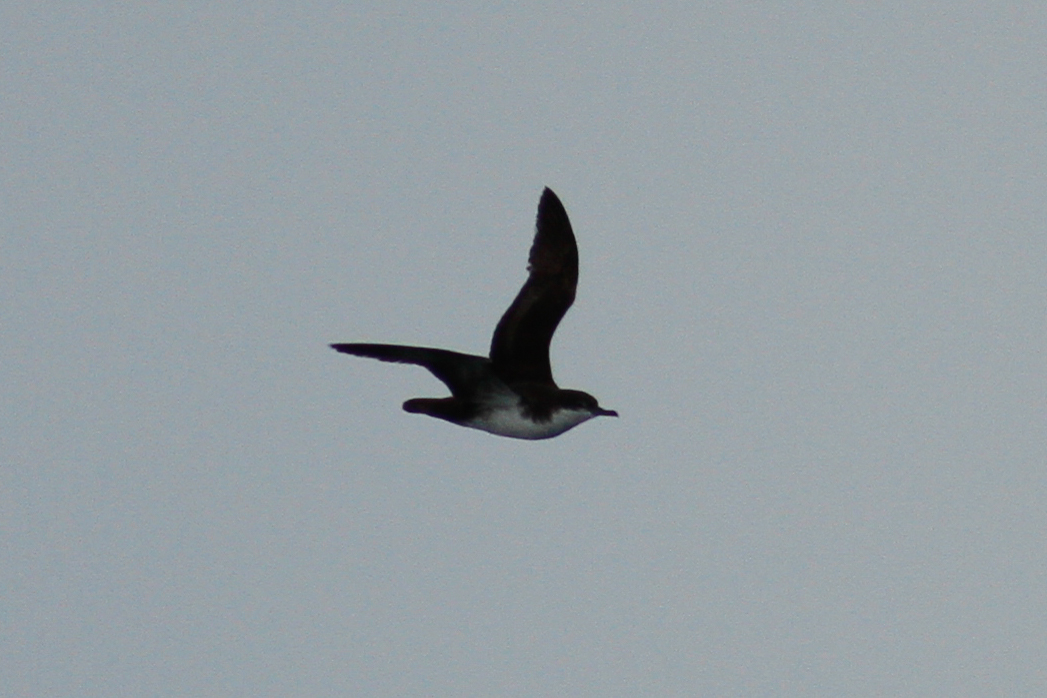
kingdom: Animalia
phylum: Chordata
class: Aves
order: Procellariiformes
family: Procellariidae
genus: Puffinus
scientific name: Puffinus subalaris
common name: Galapagos shearwater
